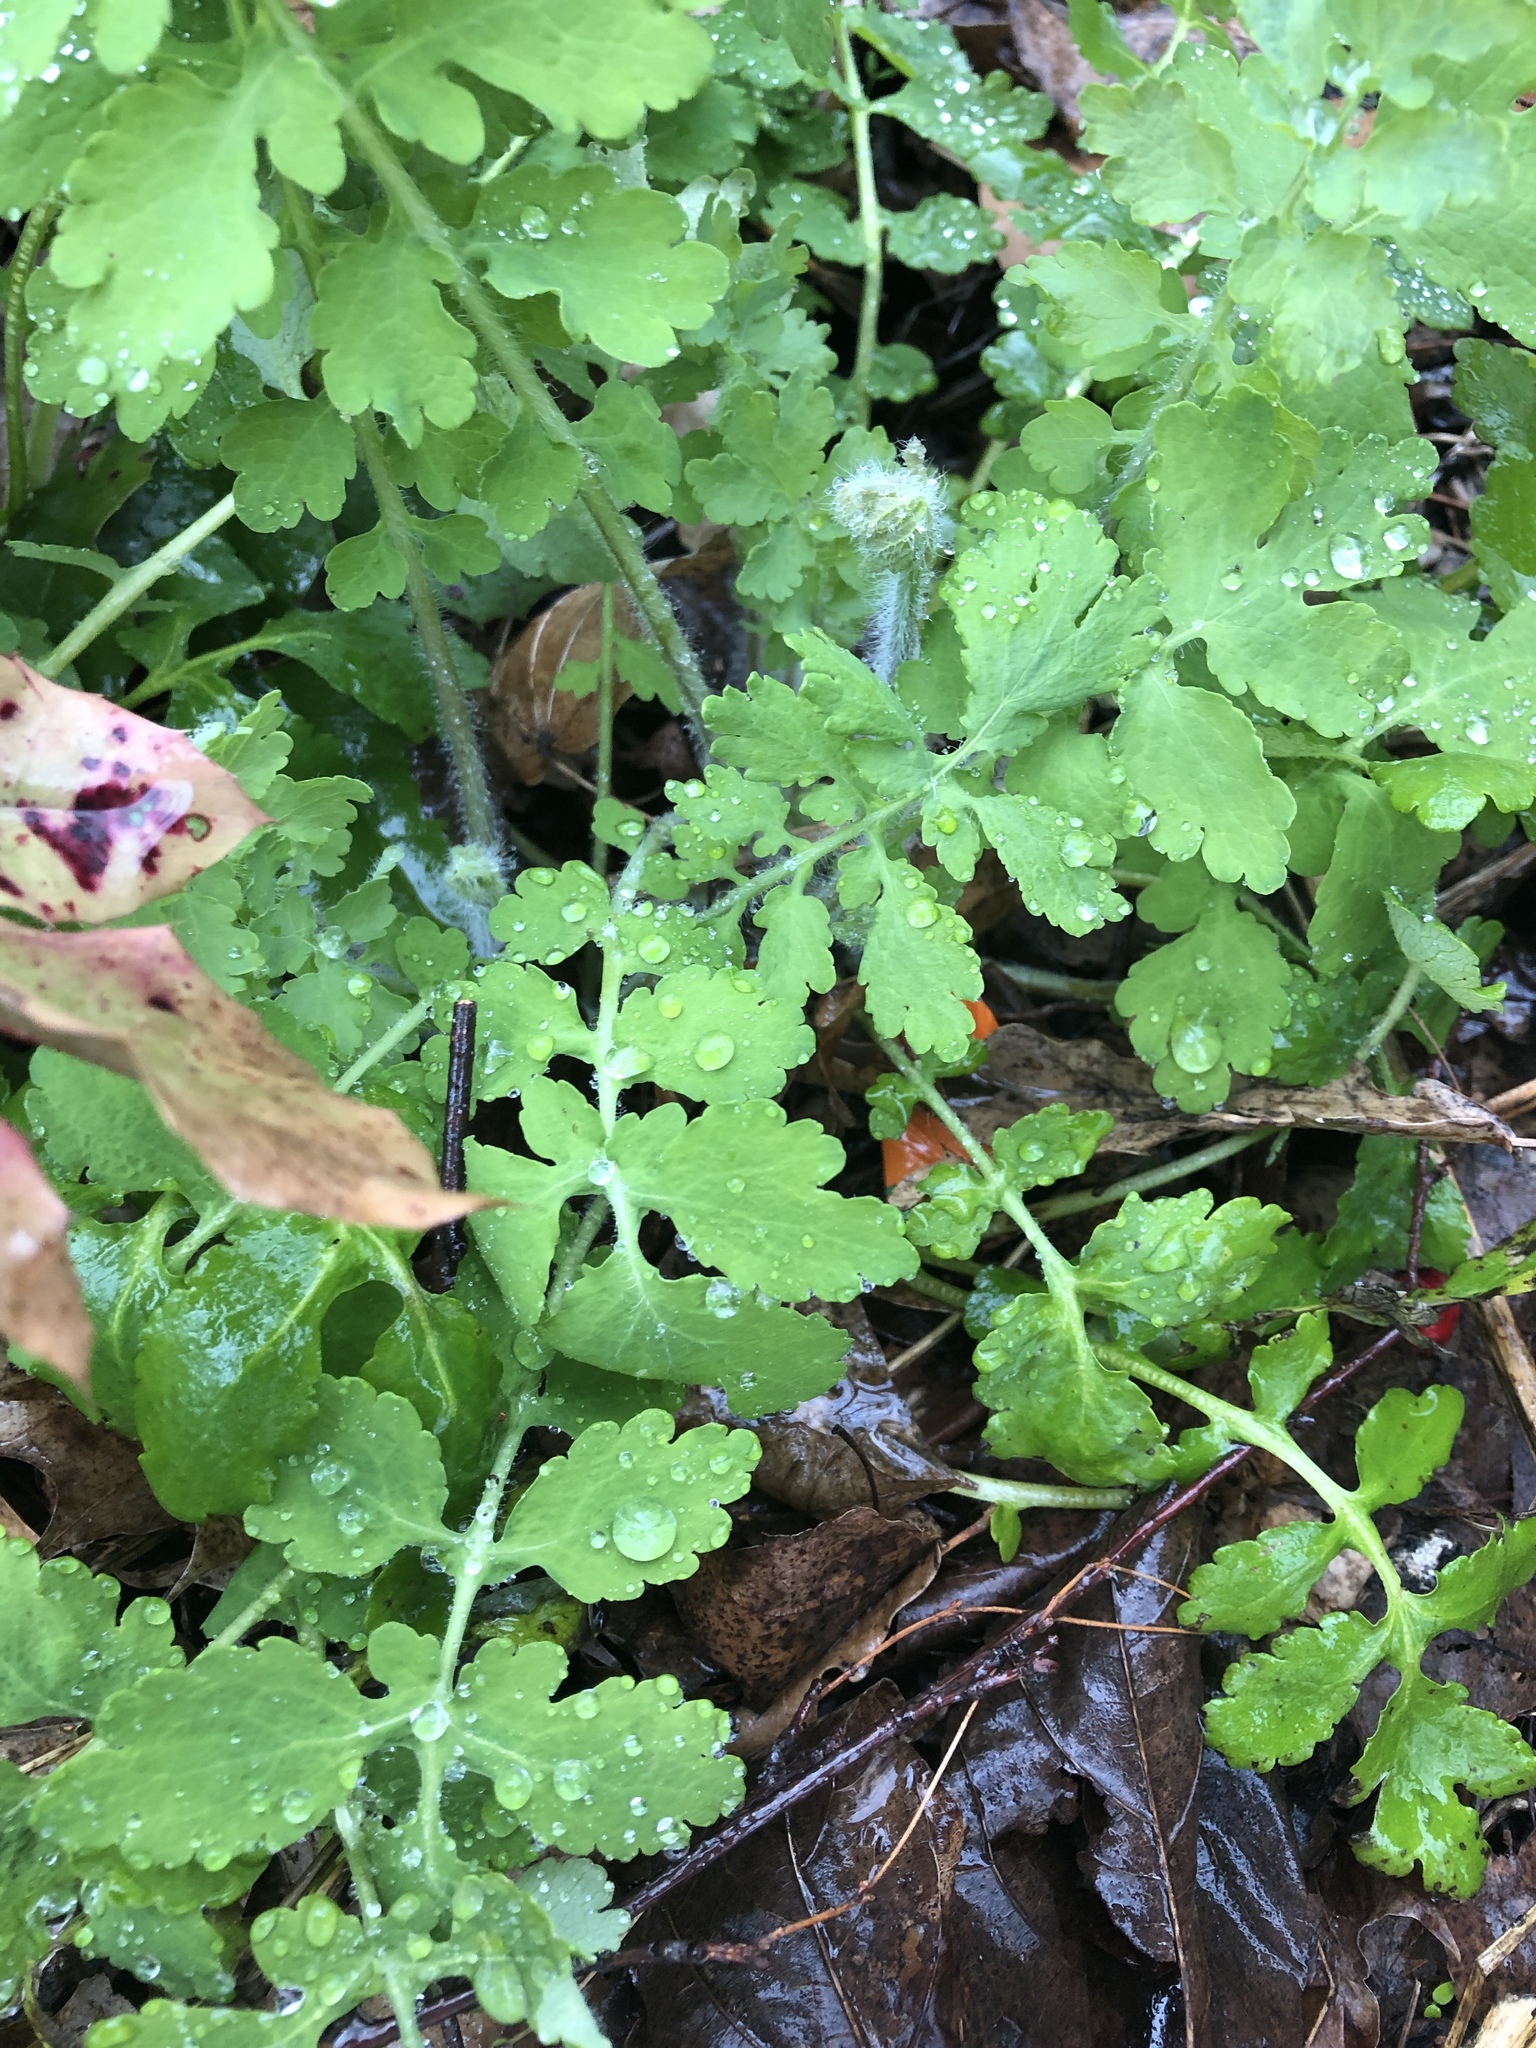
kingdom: Plantae
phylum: Tracheophyta
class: Magnoliopsida
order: Ranunculales
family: Papaveraceae
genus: Chelidonium
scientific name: Chelidonium majus
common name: Greater celandine
